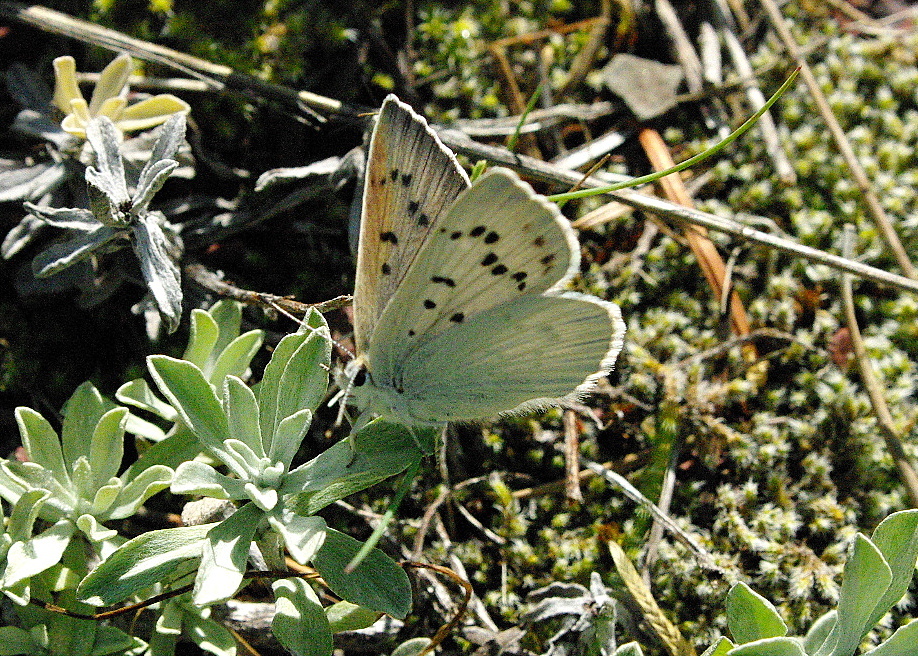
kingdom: Animalia
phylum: Arthropoda
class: Insecta
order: Lepidoptera
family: Lycaenidae
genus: Tharsalea
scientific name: Tharsalea heteronea
